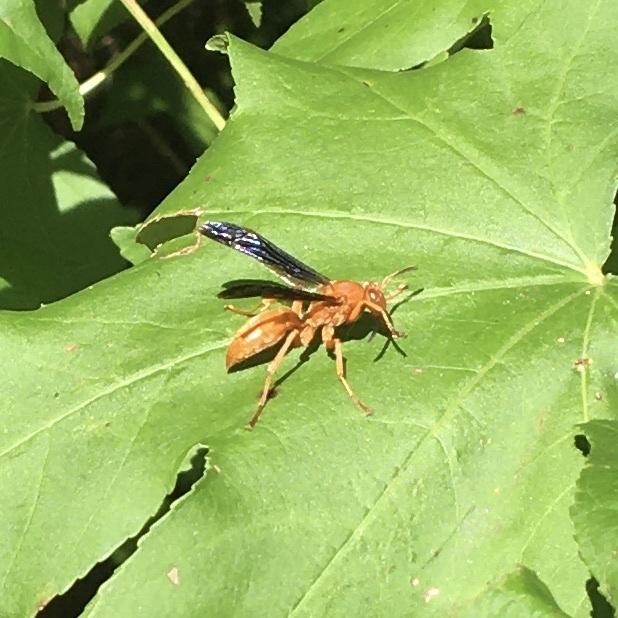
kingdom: Animalia
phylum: Arthropoda
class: Insecta
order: Hymenoptera
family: Vespidae
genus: Fuscopolistes
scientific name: Fuscopolistes
